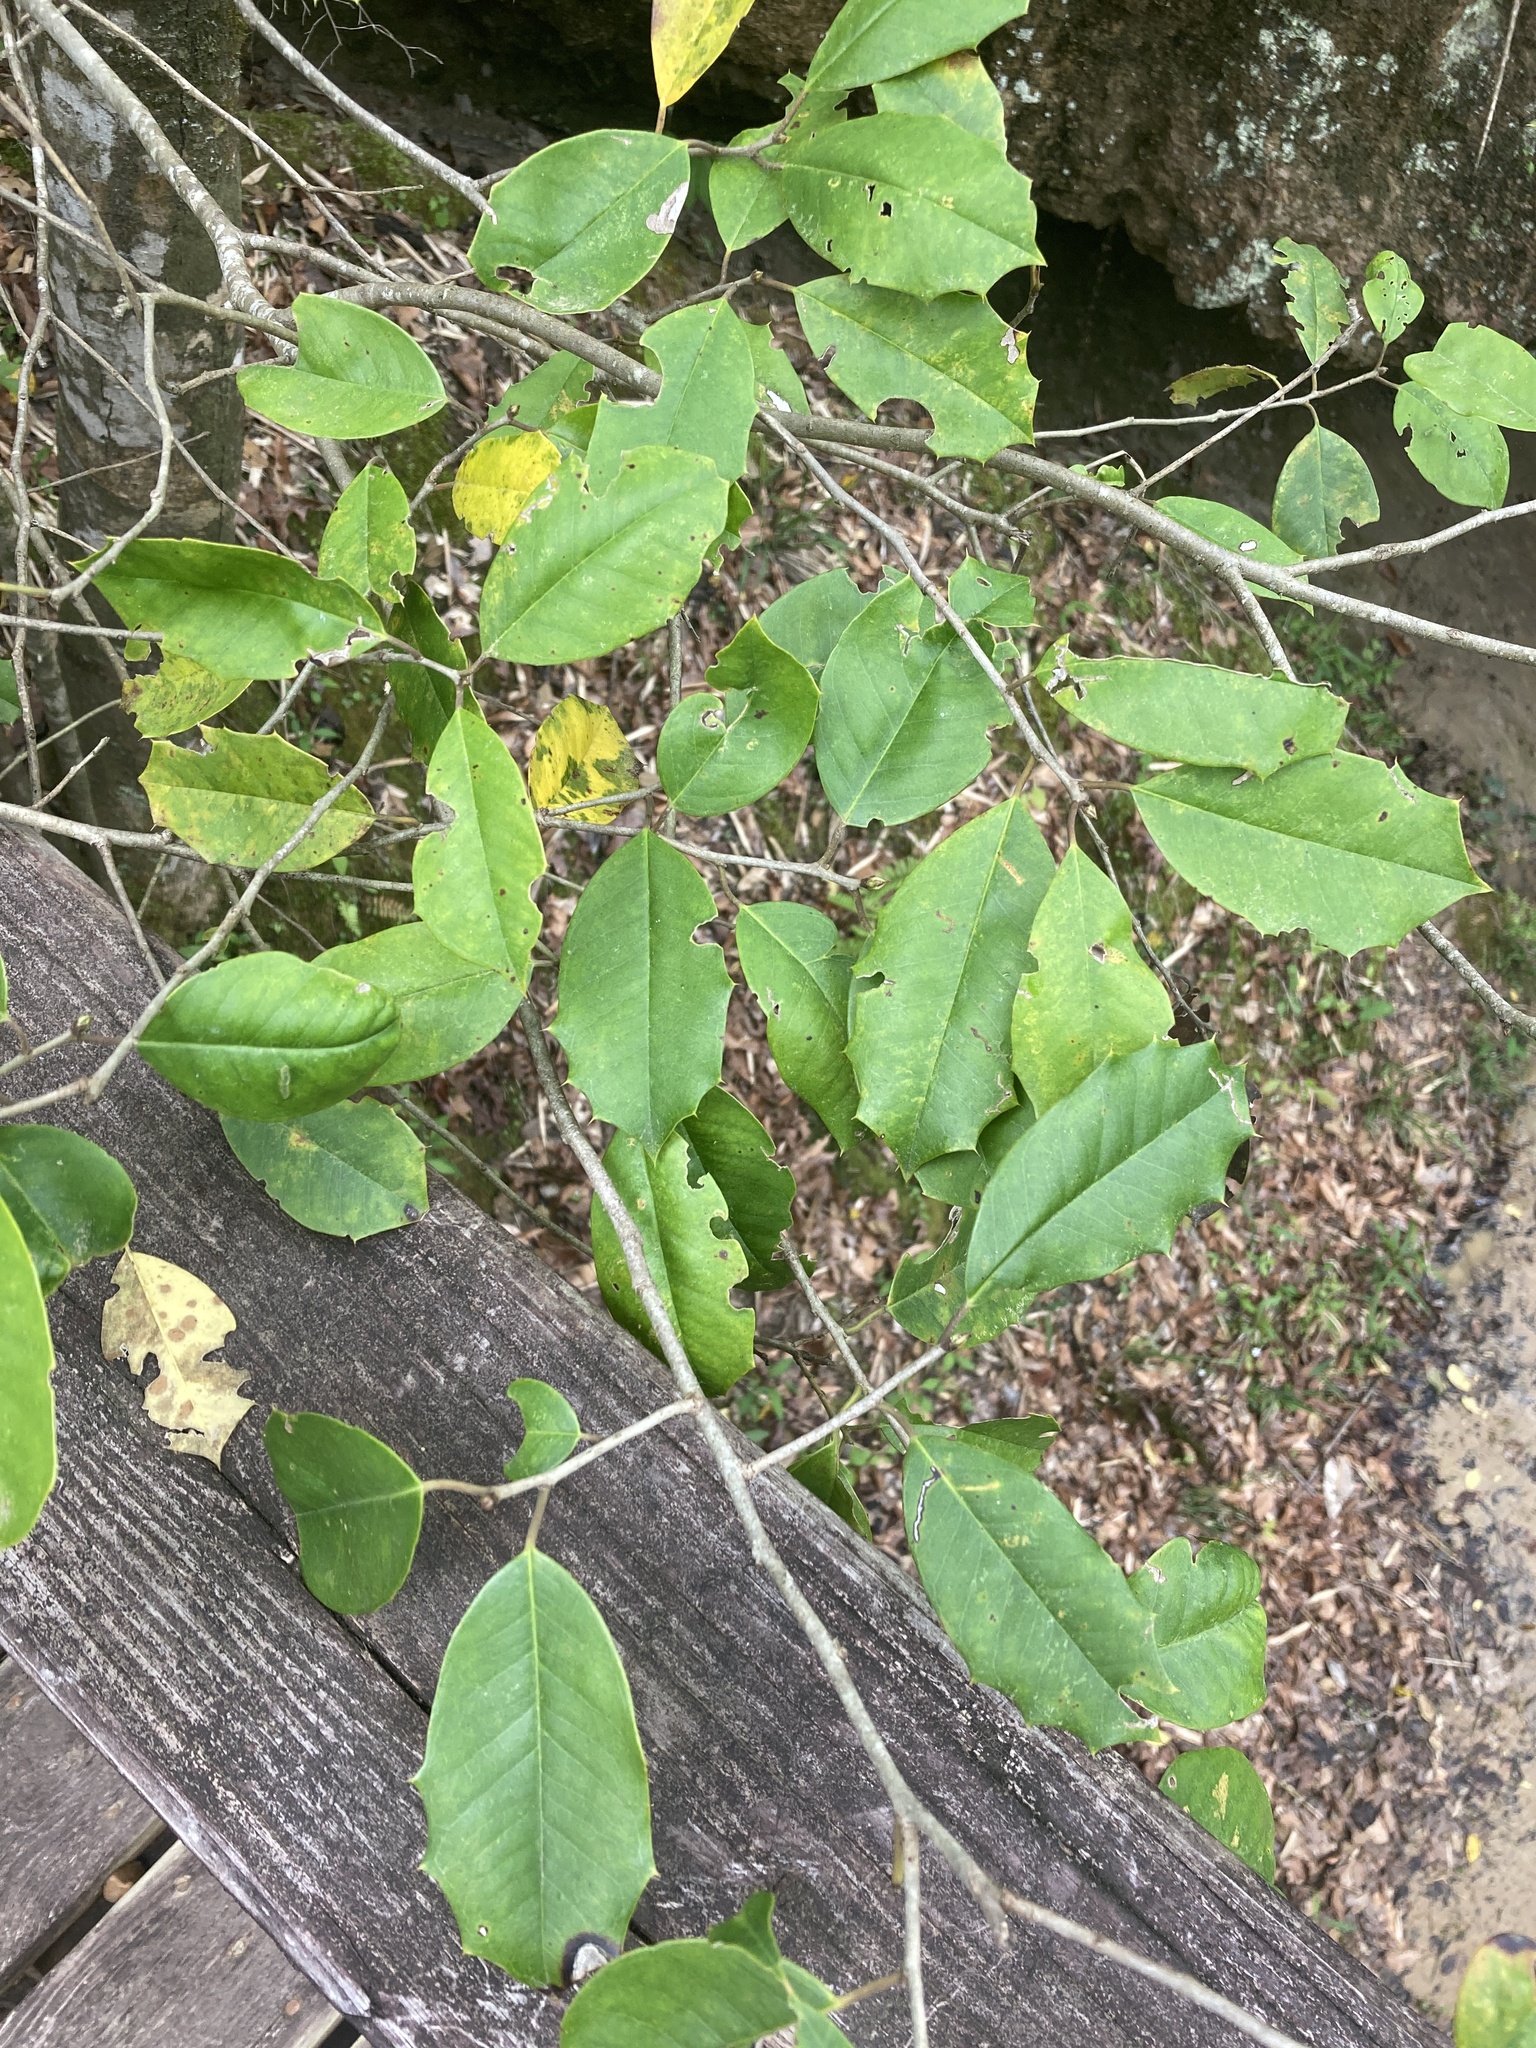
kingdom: Plantae
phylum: Tracheophyta
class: Magnoliopsida
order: Aquifoliales
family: Aquifoliaceae
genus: Ilex
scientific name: Ilex opaca
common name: American holly
